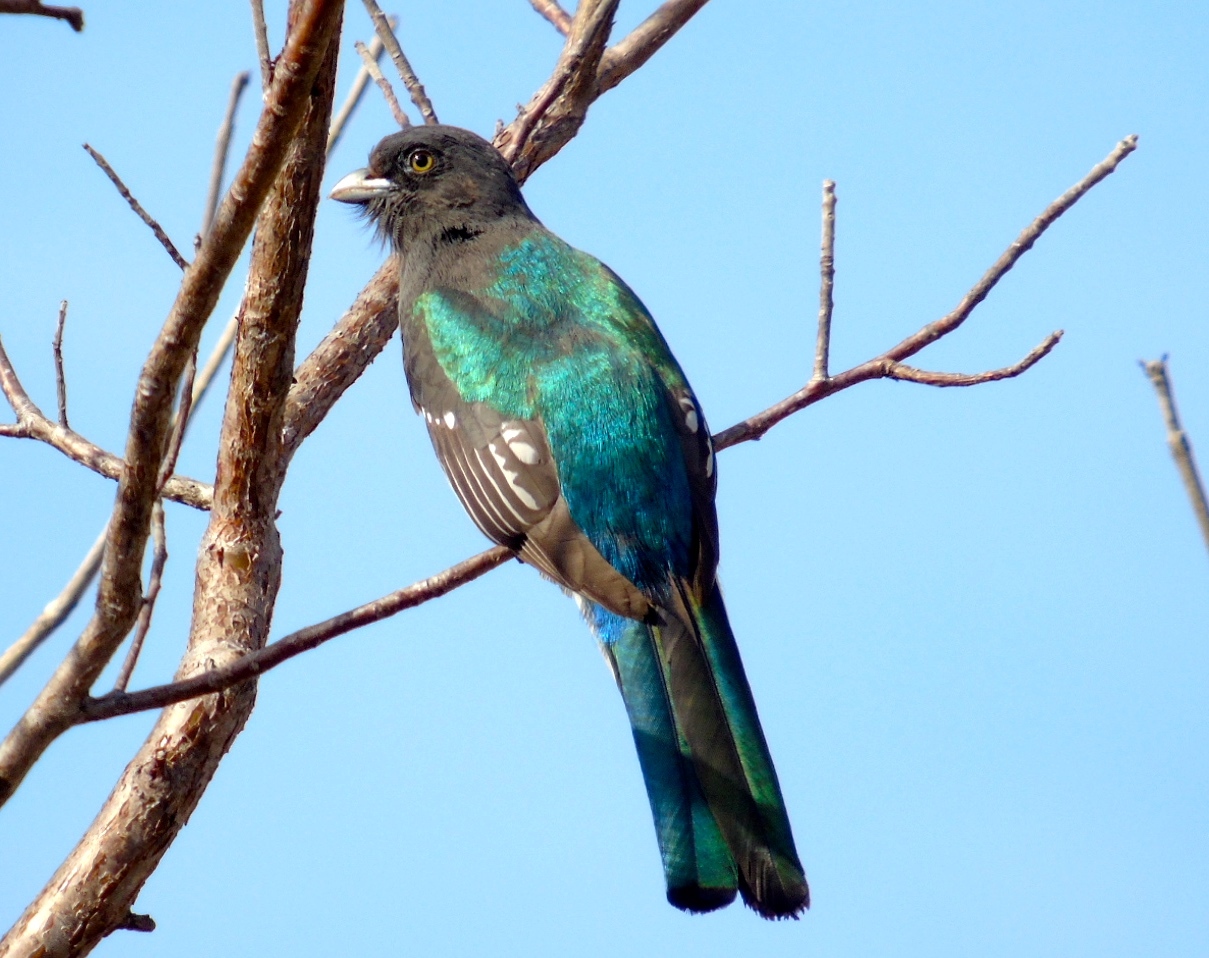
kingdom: Animalia
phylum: Chordata
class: Aves
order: Trogoniformes
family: Trogonidae
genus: Trogon
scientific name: Trogon citreolus
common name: Citreoline trogon
